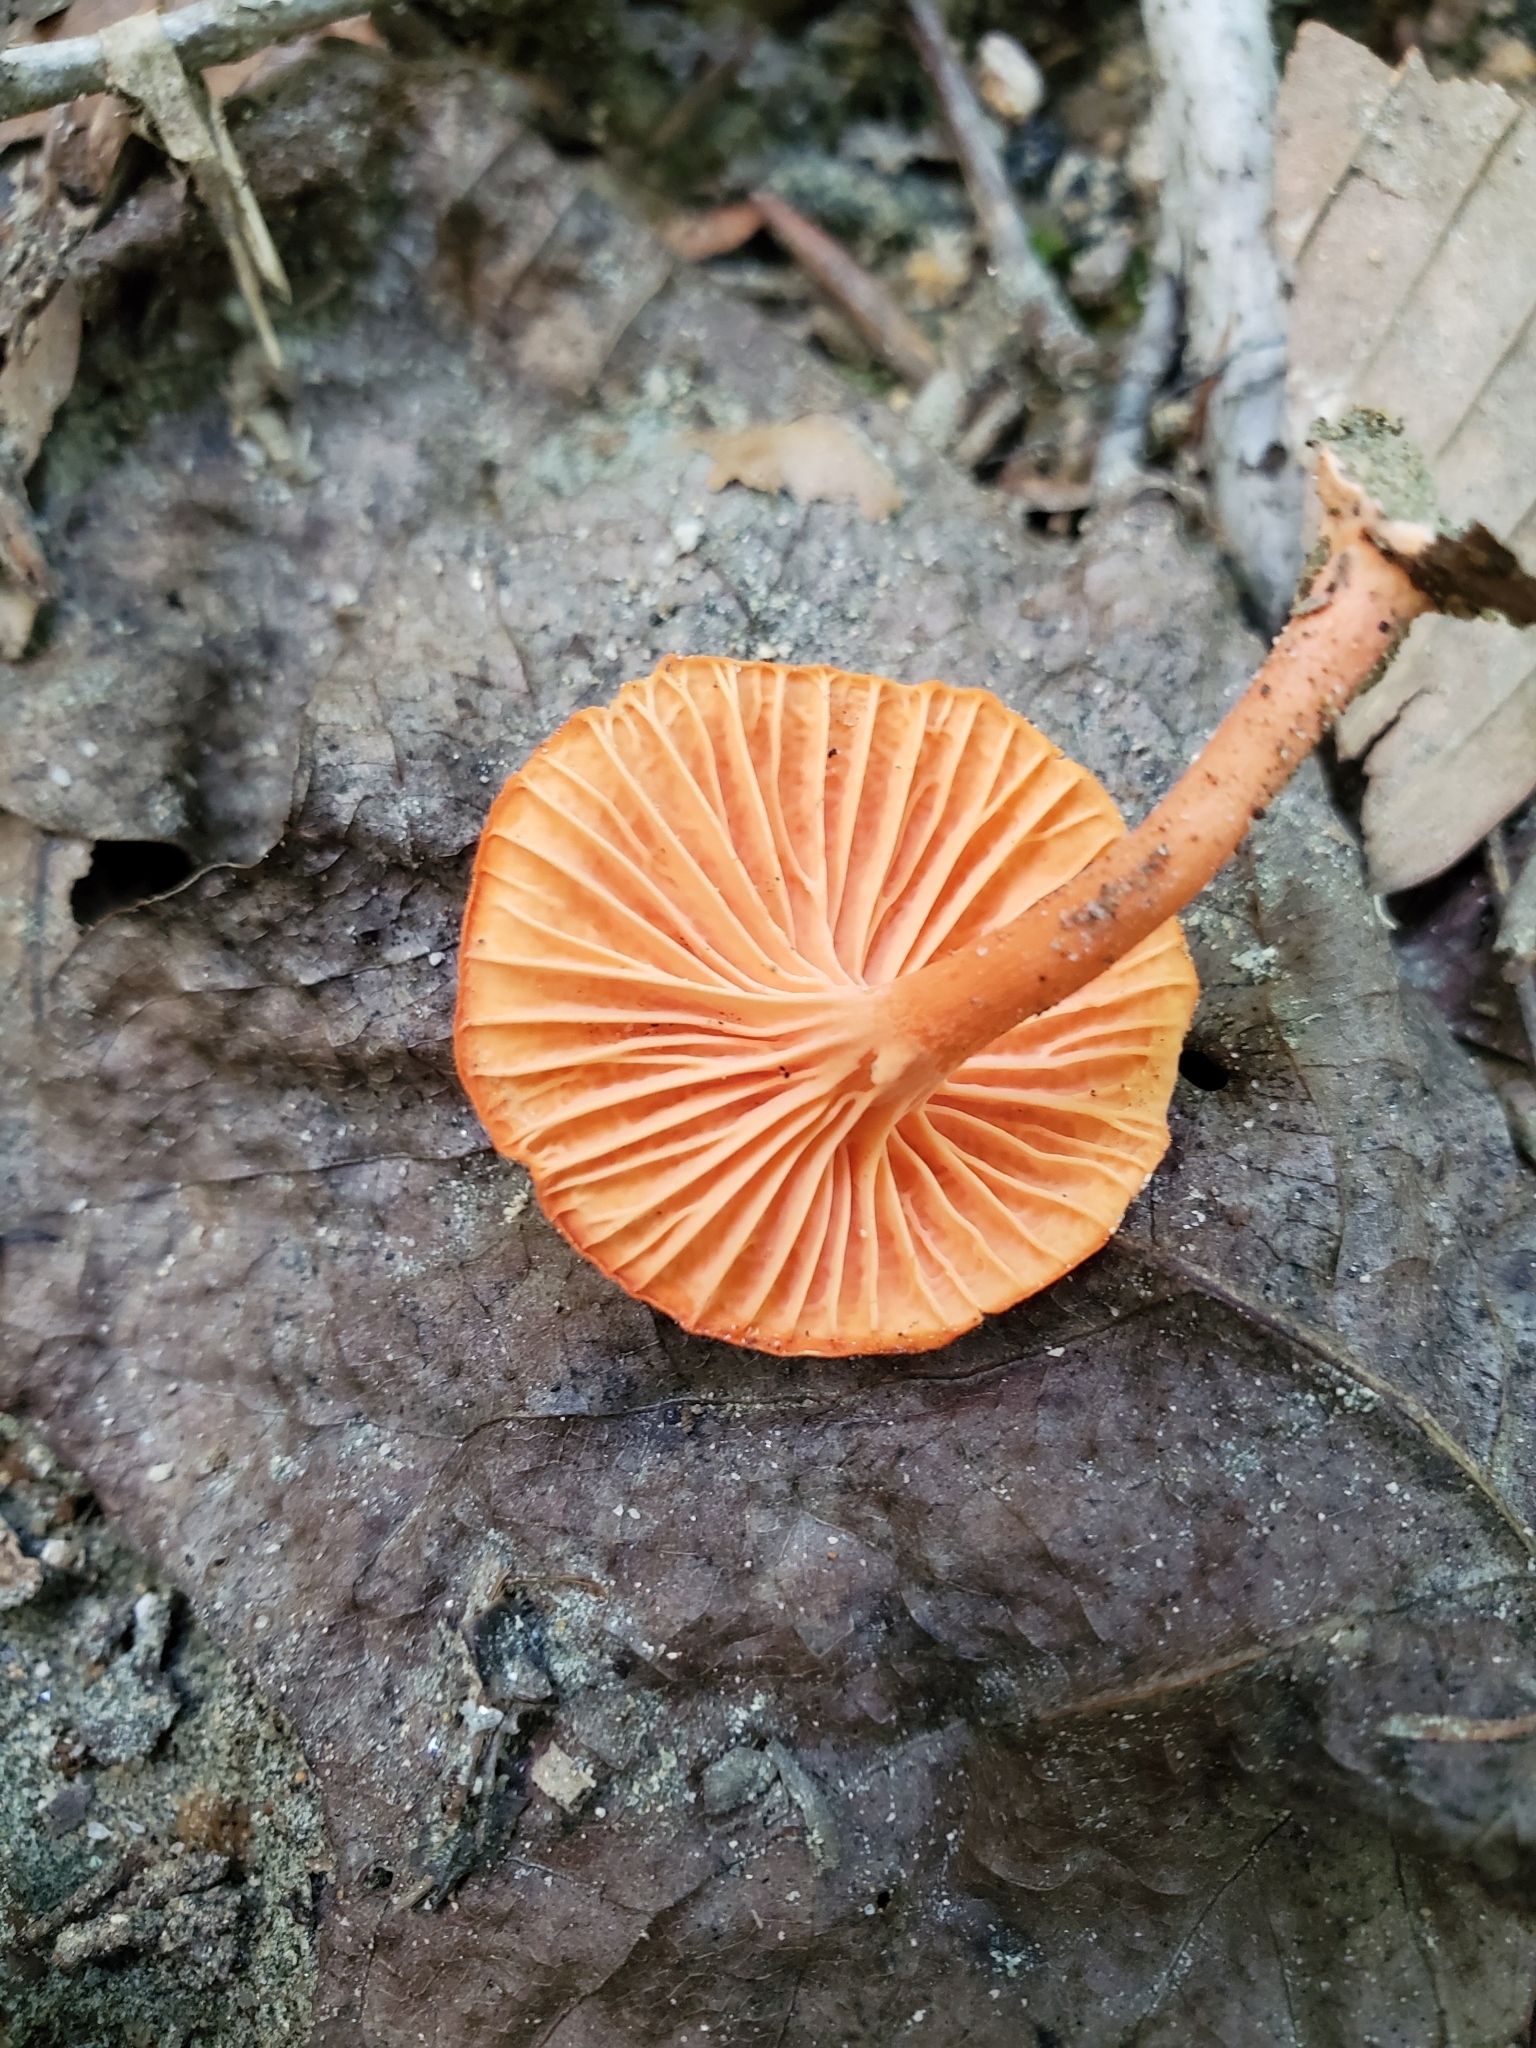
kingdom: Fungi
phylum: Basidiomycota
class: Agaricomycetes
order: Cantharellales
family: Hydnaceae
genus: Cantharellus
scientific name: Cantharellus cinnabarinus
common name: Cinnabar chanterelle
